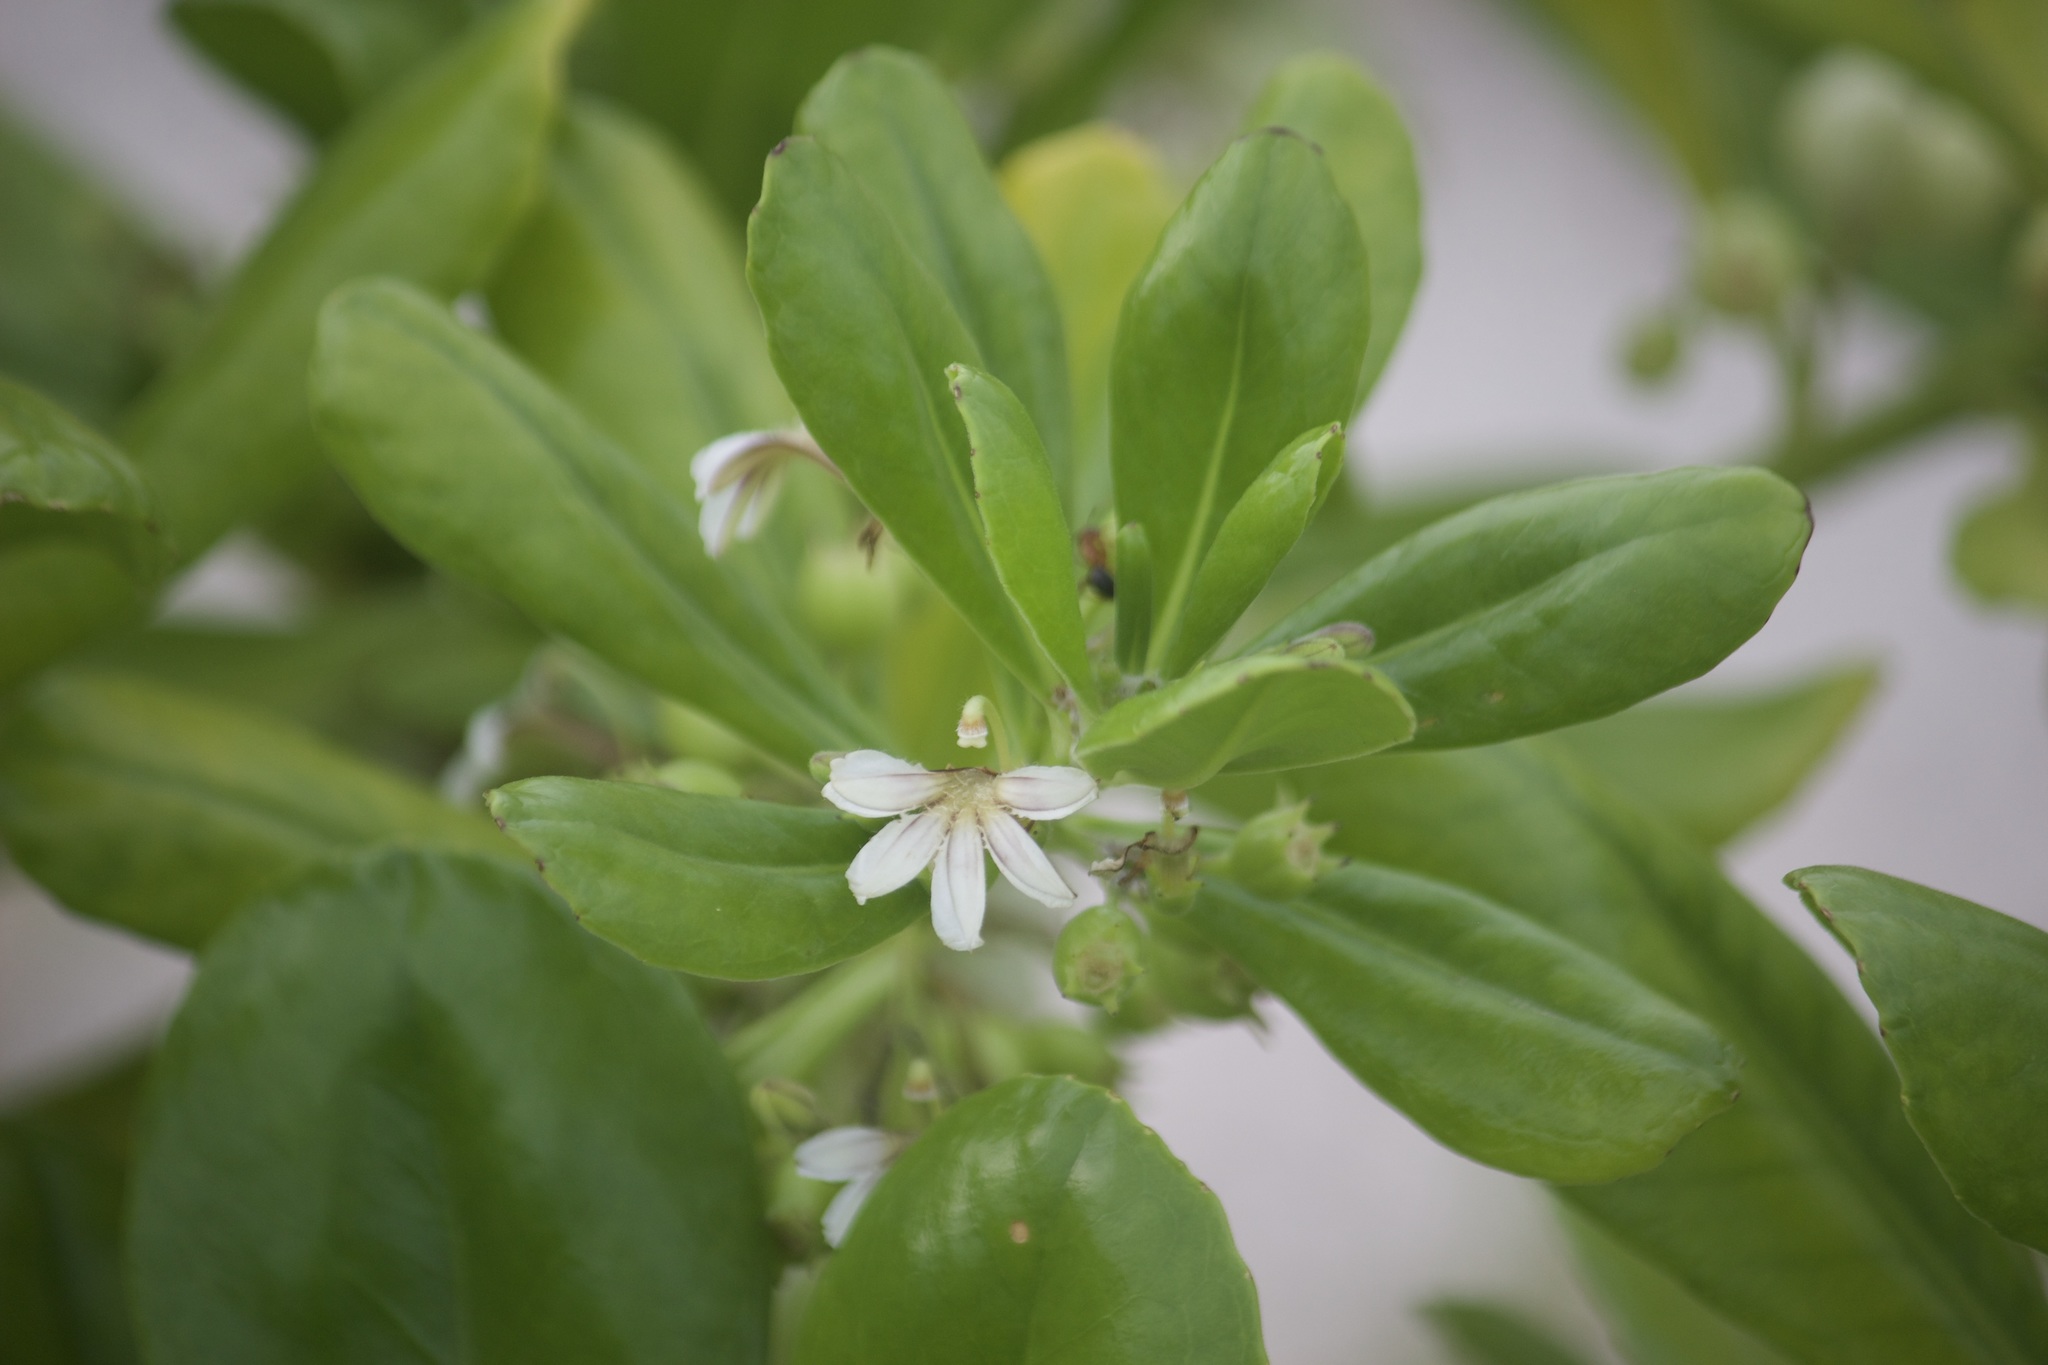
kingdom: Plantae
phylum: Tracheophyta
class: Magnoliopsida
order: Asterales
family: Goodeniaceae
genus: Scaevola
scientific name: Scaevola taccada
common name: Sea lettucetree
